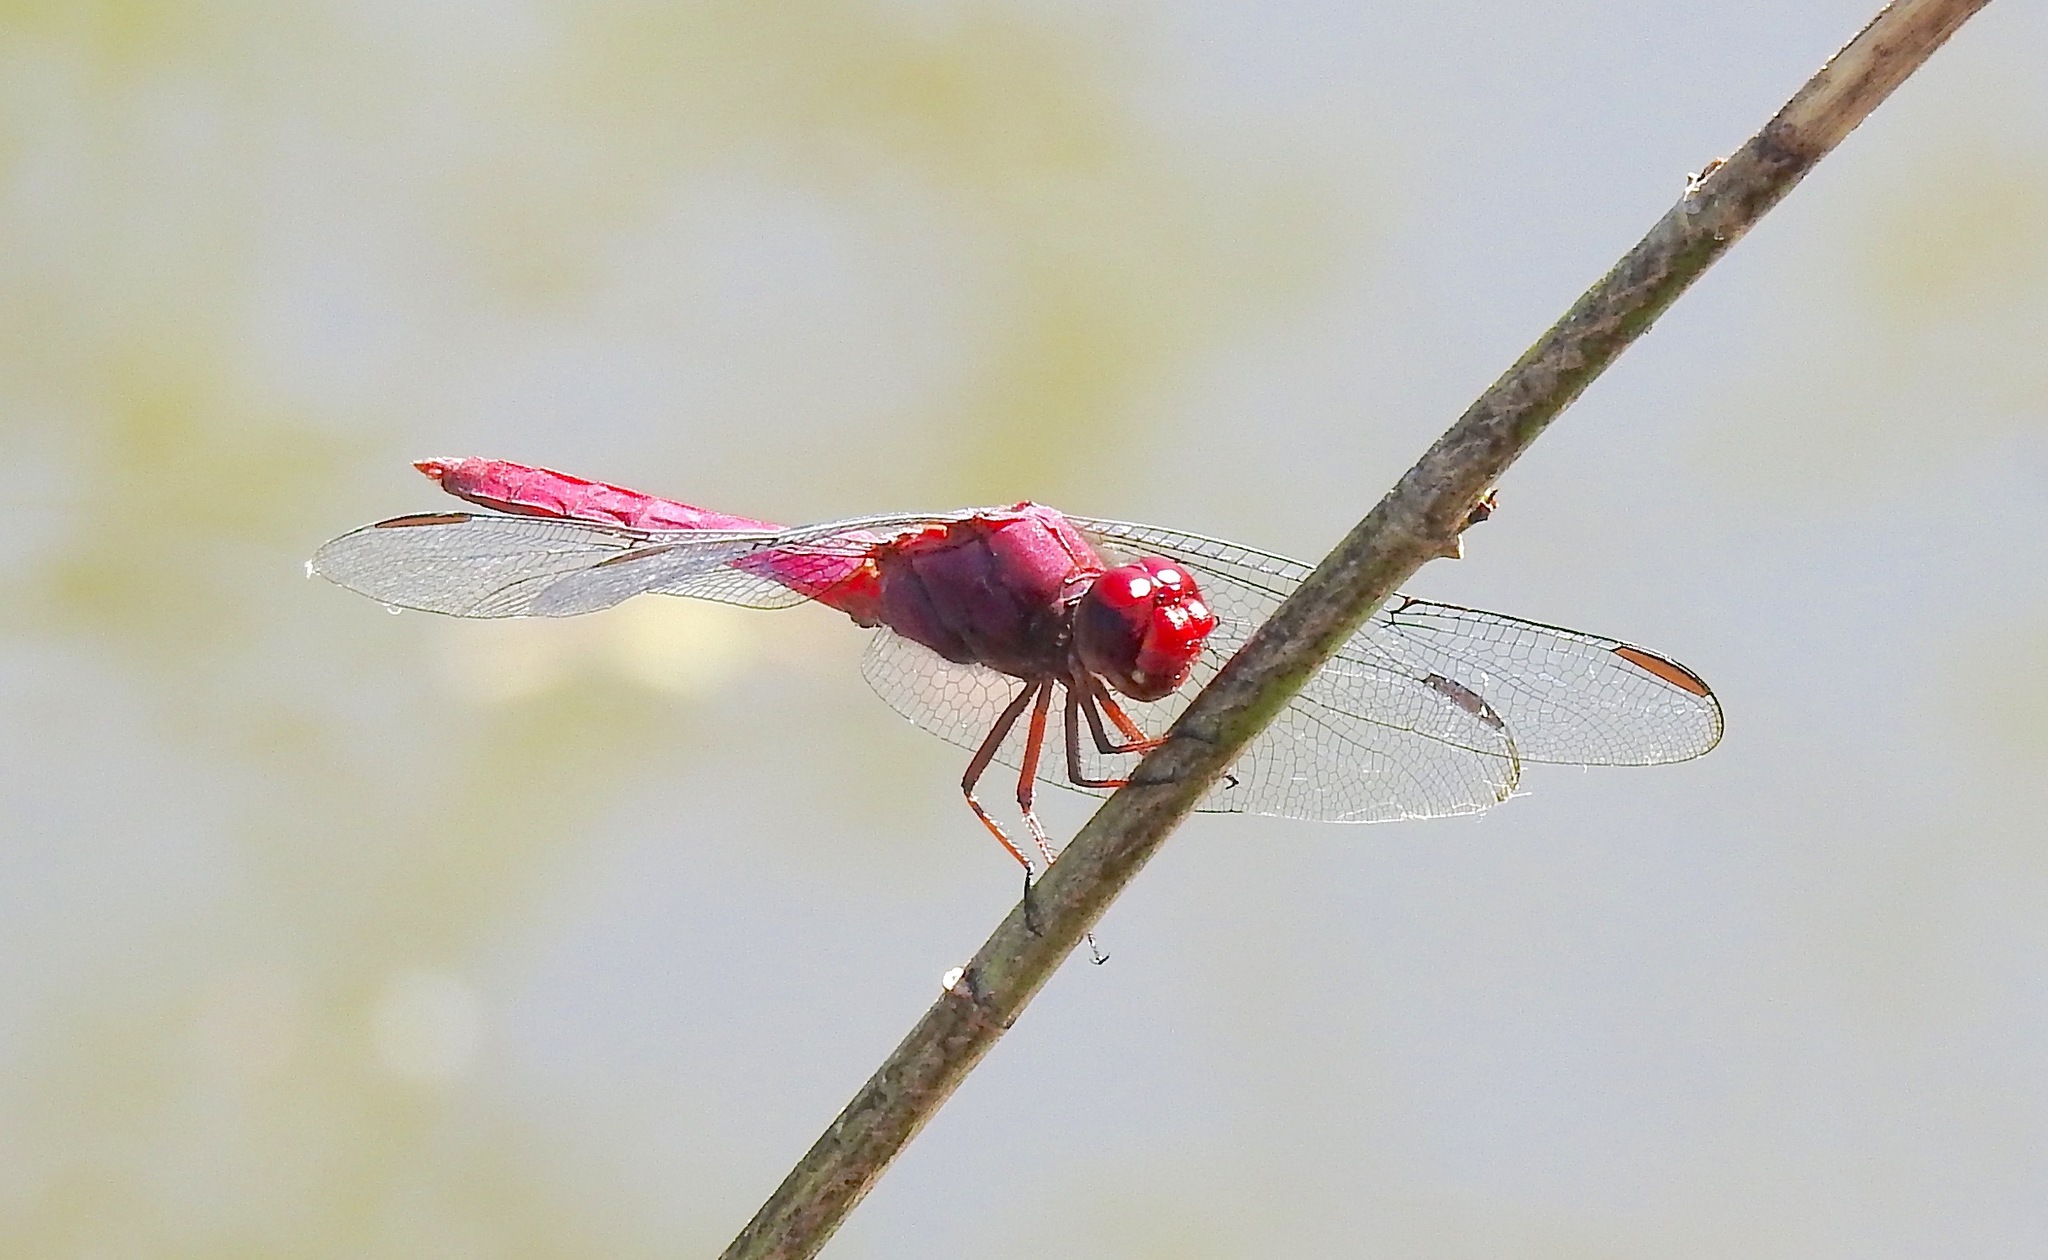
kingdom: Animalia
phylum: Arthropoda
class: Insecta
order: Odonata
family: Libellulidae
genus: Orthemis
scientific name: Orthemis discolor
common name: Carmine skimmer
